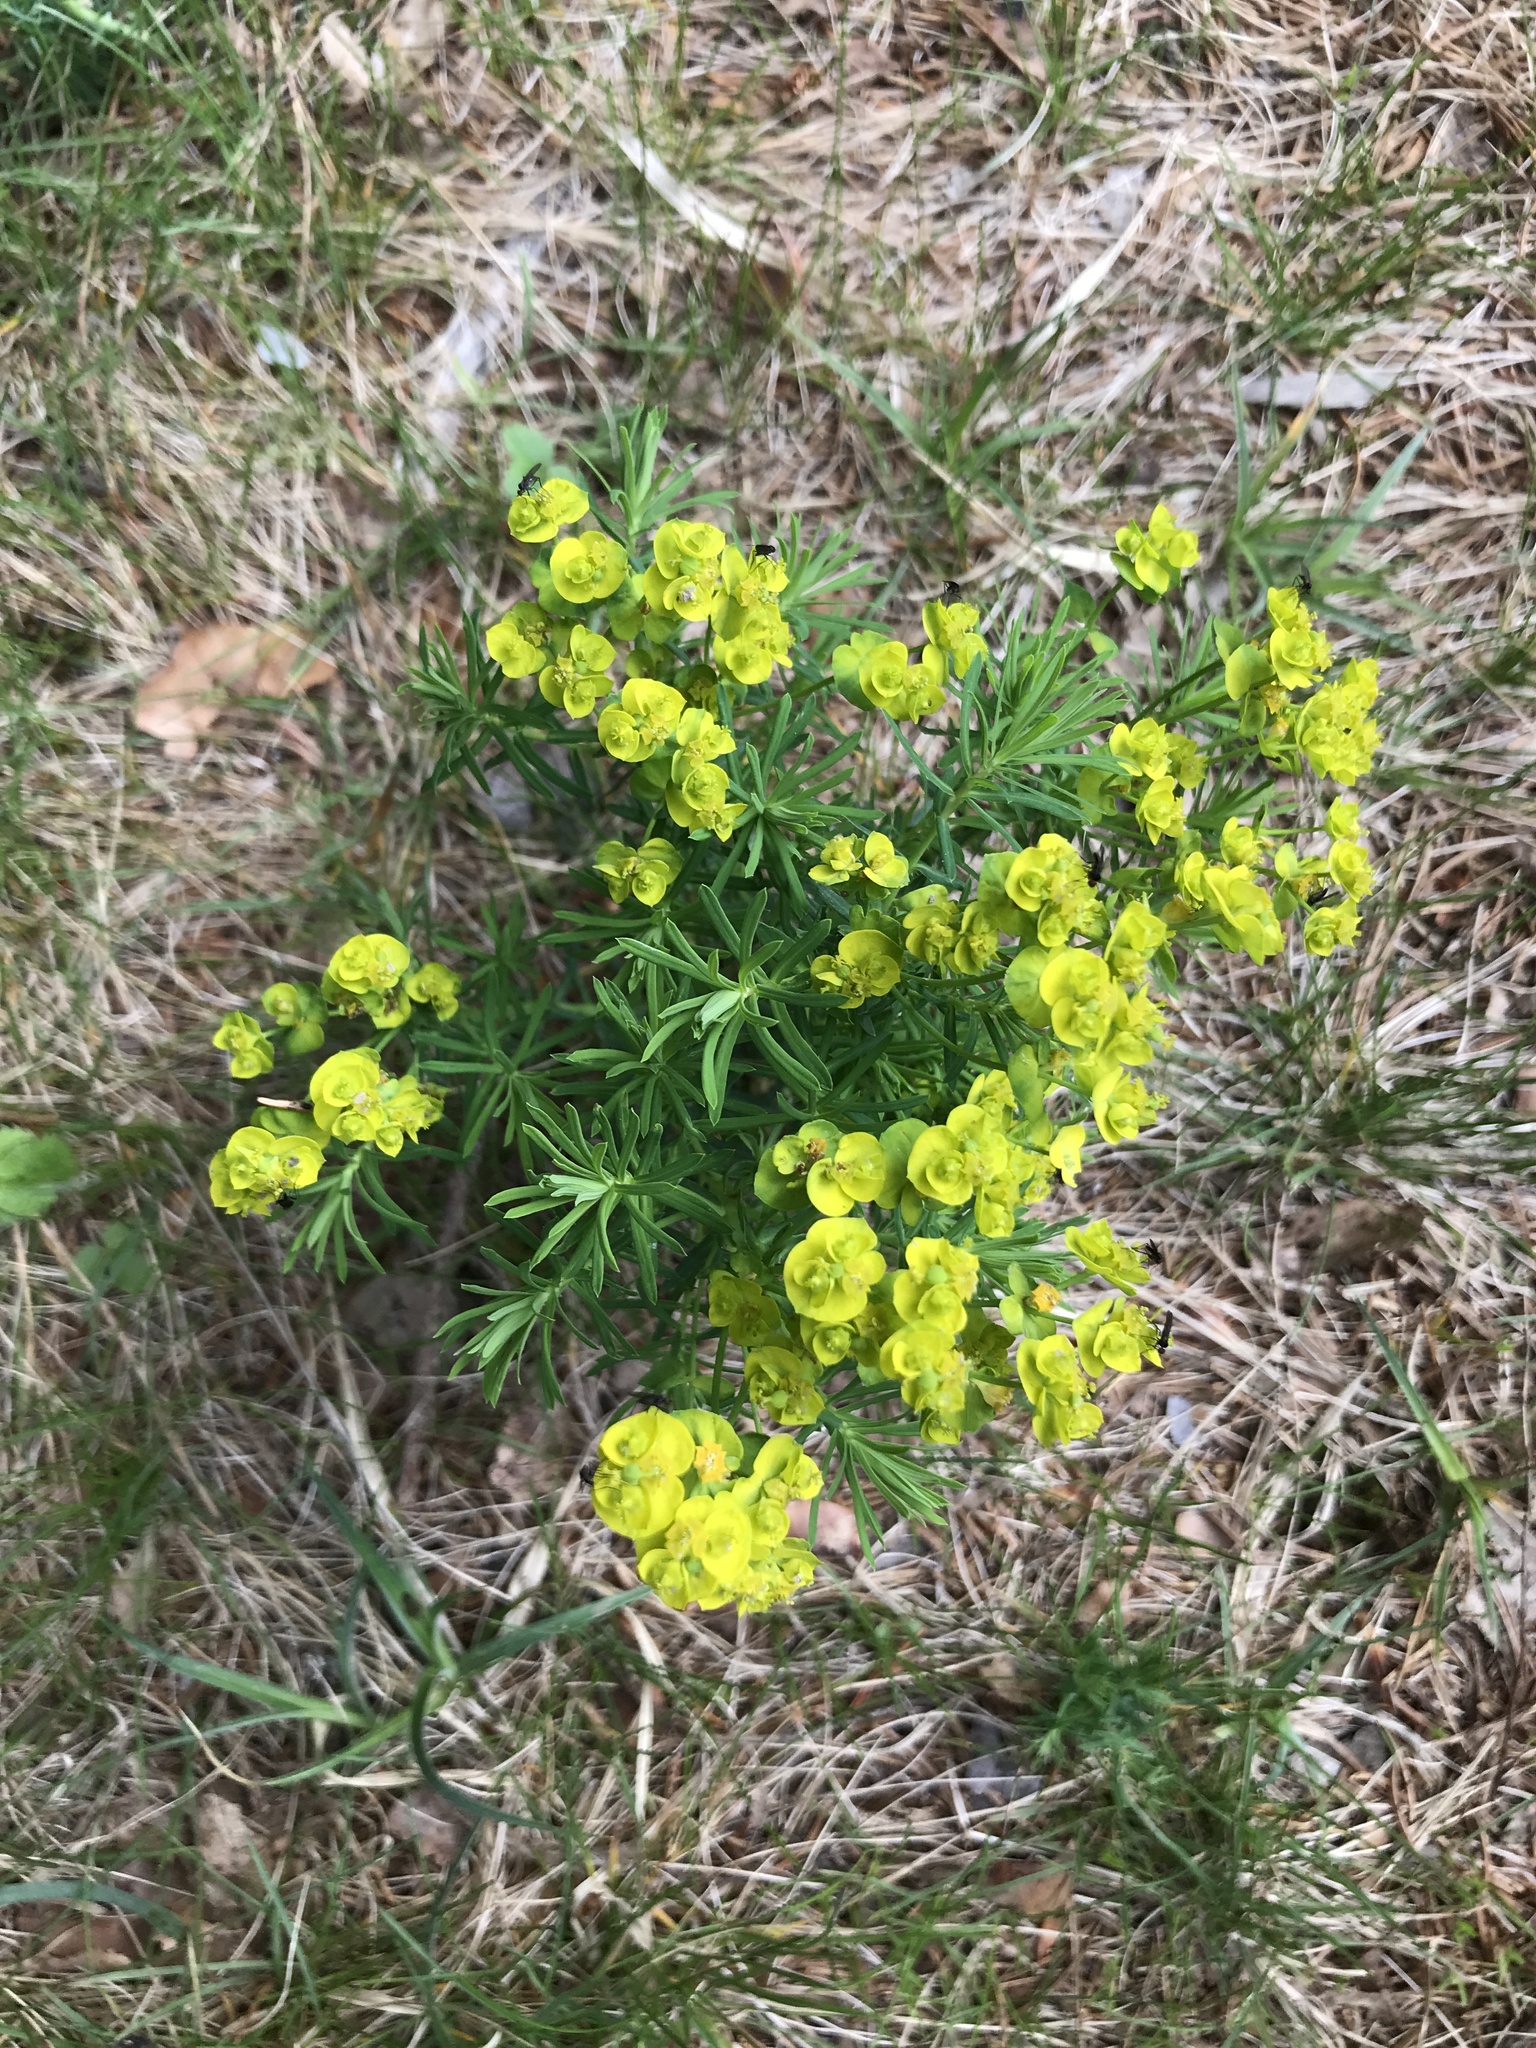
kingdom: Plantae
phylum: Tracheophyta
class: Magnoliopsida
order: Malpighiales
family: Euphorbiaceae
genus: Euphorbia
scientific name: Euphorbia cyparissias
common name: Cypress spurge
